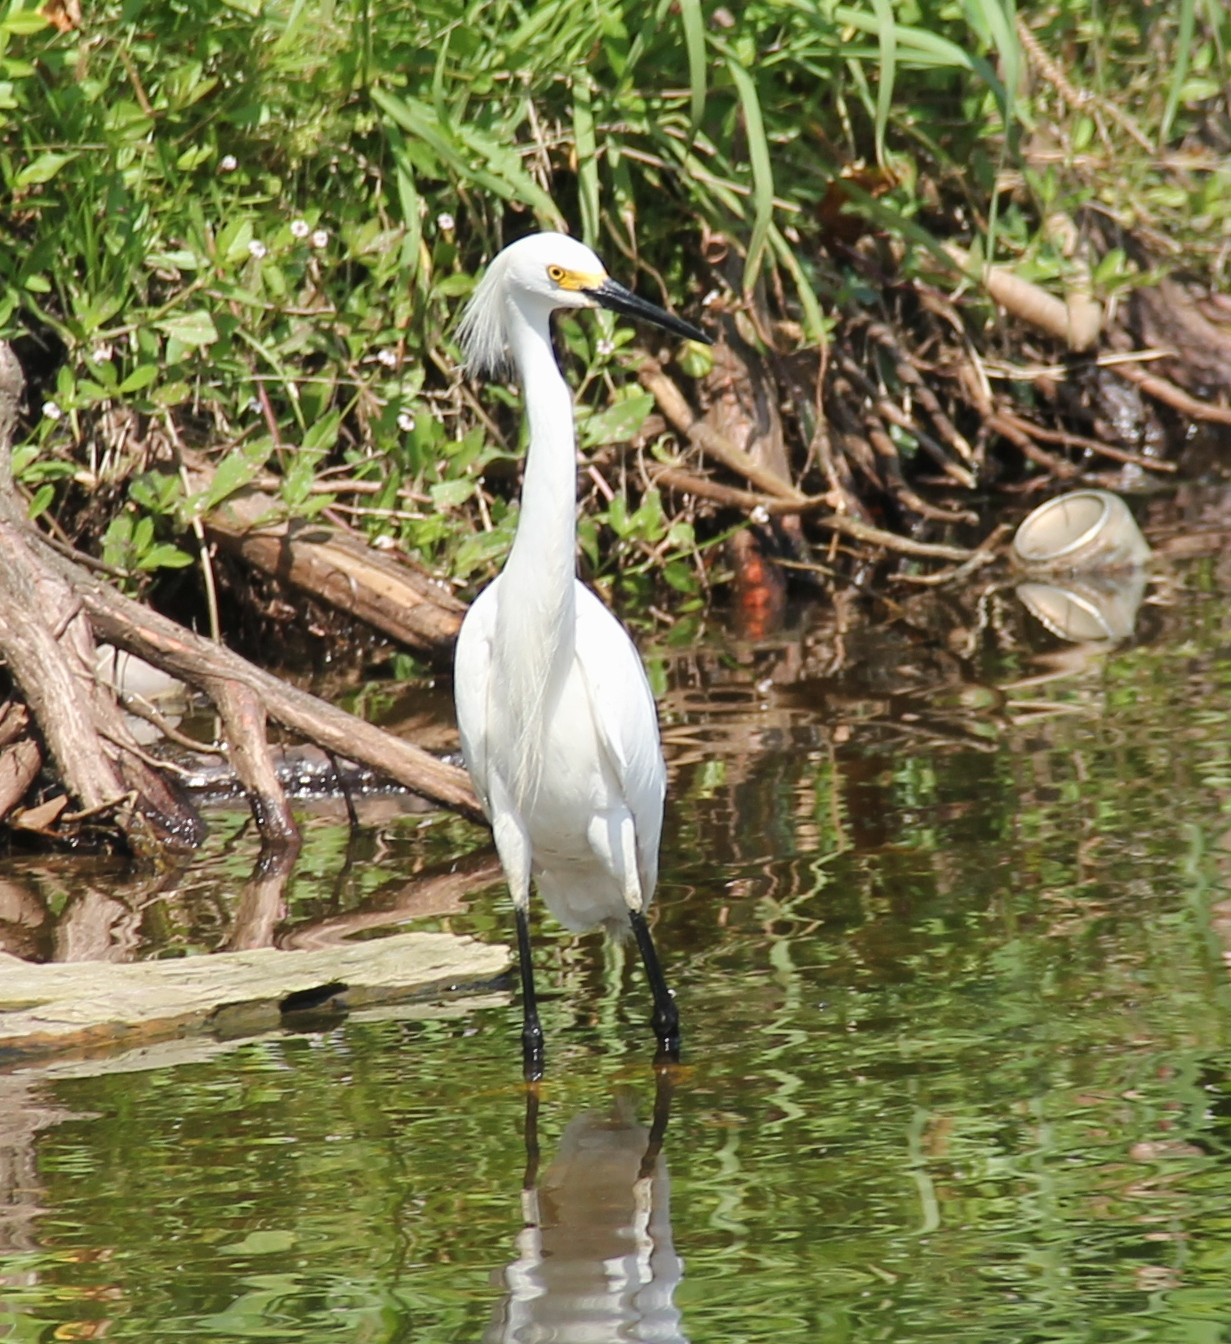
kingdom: Animalia
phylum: Chordata
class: Aves
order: Pelecaniformes
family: Ardeidae
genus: Egretta
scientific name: Egretta thula
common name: Snowy egret
